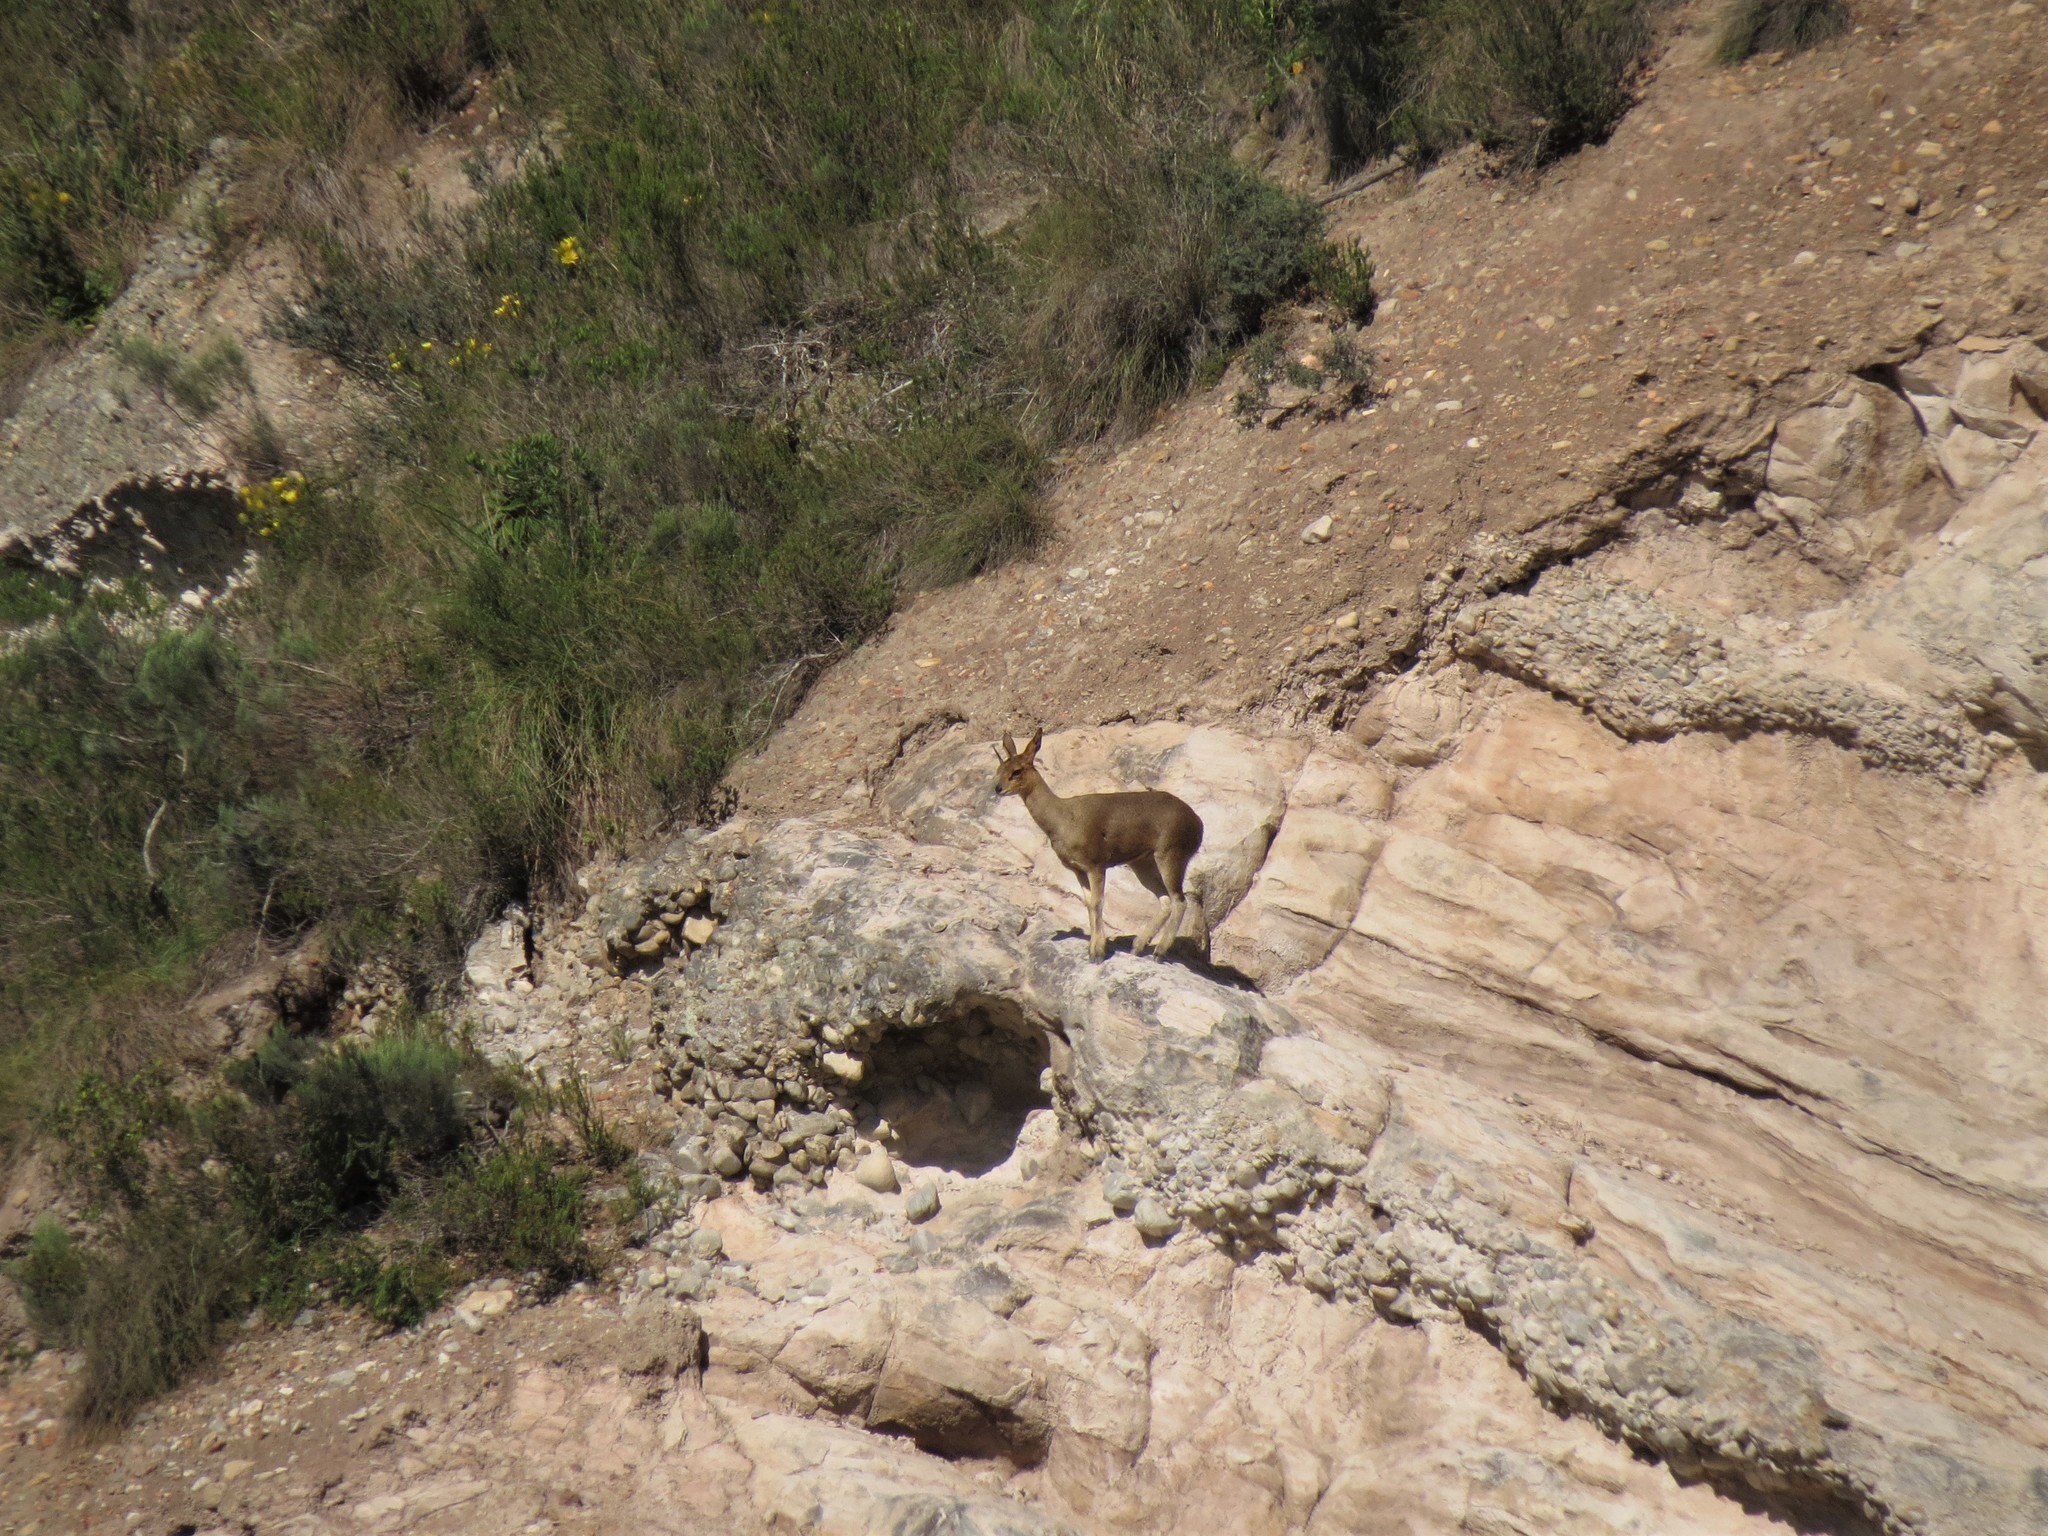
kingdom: Animalia
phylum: Chordata
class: Mammalia
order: Artiodactyla
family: Bovidae
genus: Oreotragus
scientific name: Oreotragus oreotragus
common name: Klipspringer
